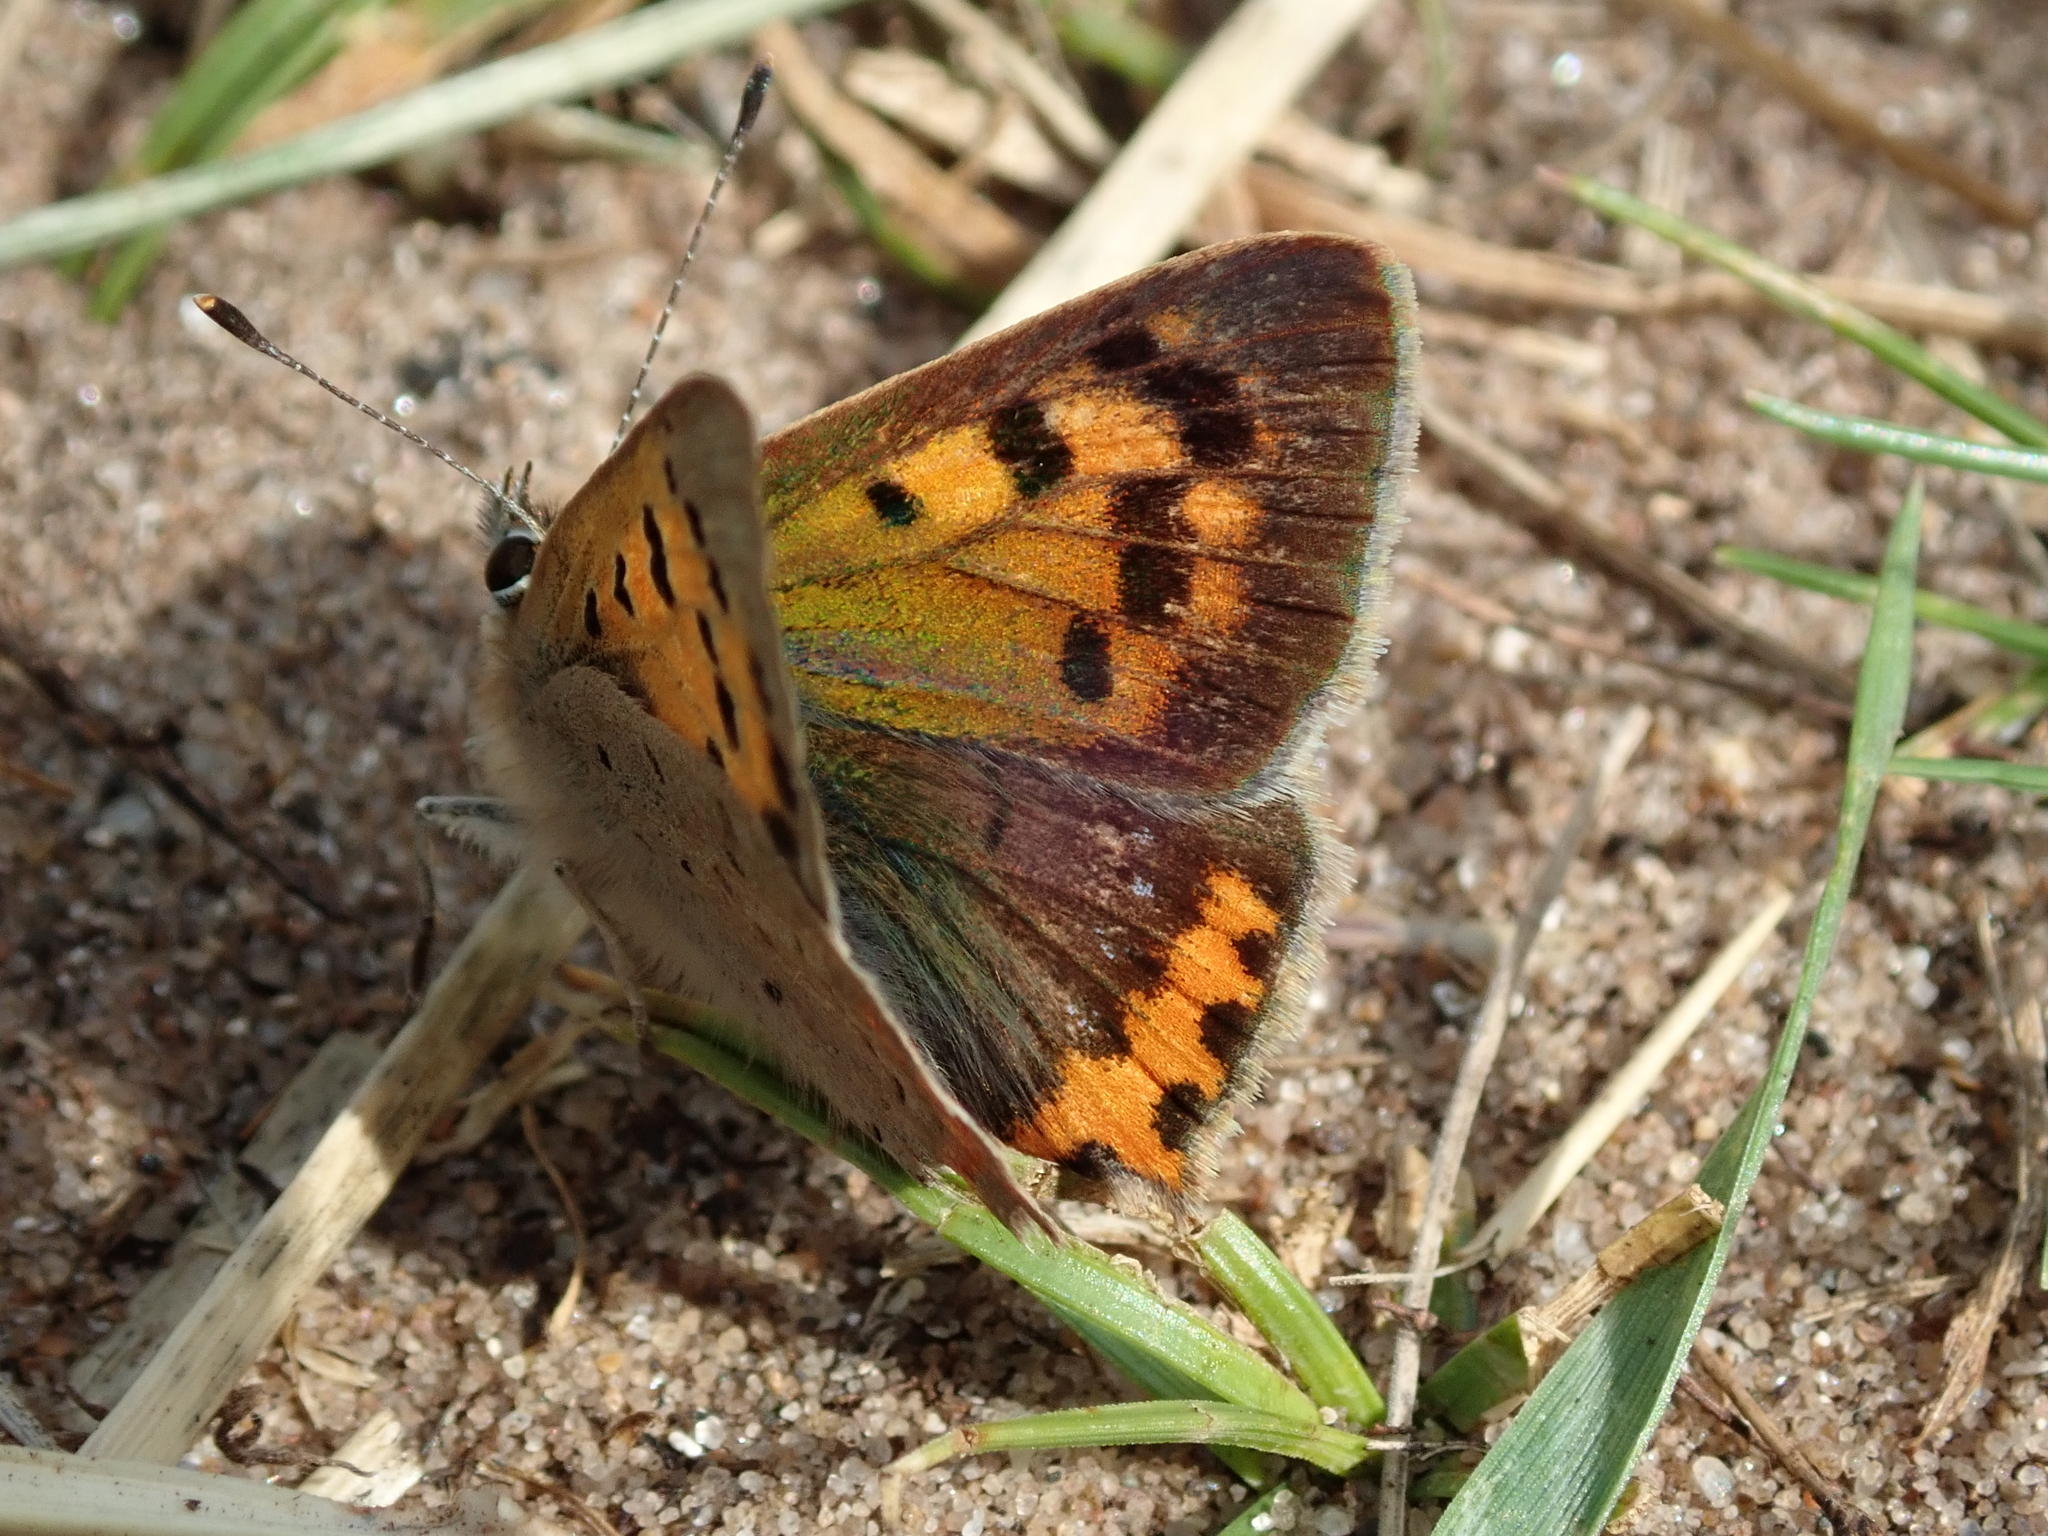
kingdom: Animalia
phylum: Arthropoda
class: Insecta
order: Lepidoptera
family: Lycaenidae
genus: Lycaena
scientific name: Lycaena phlaeas
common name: Small copper
